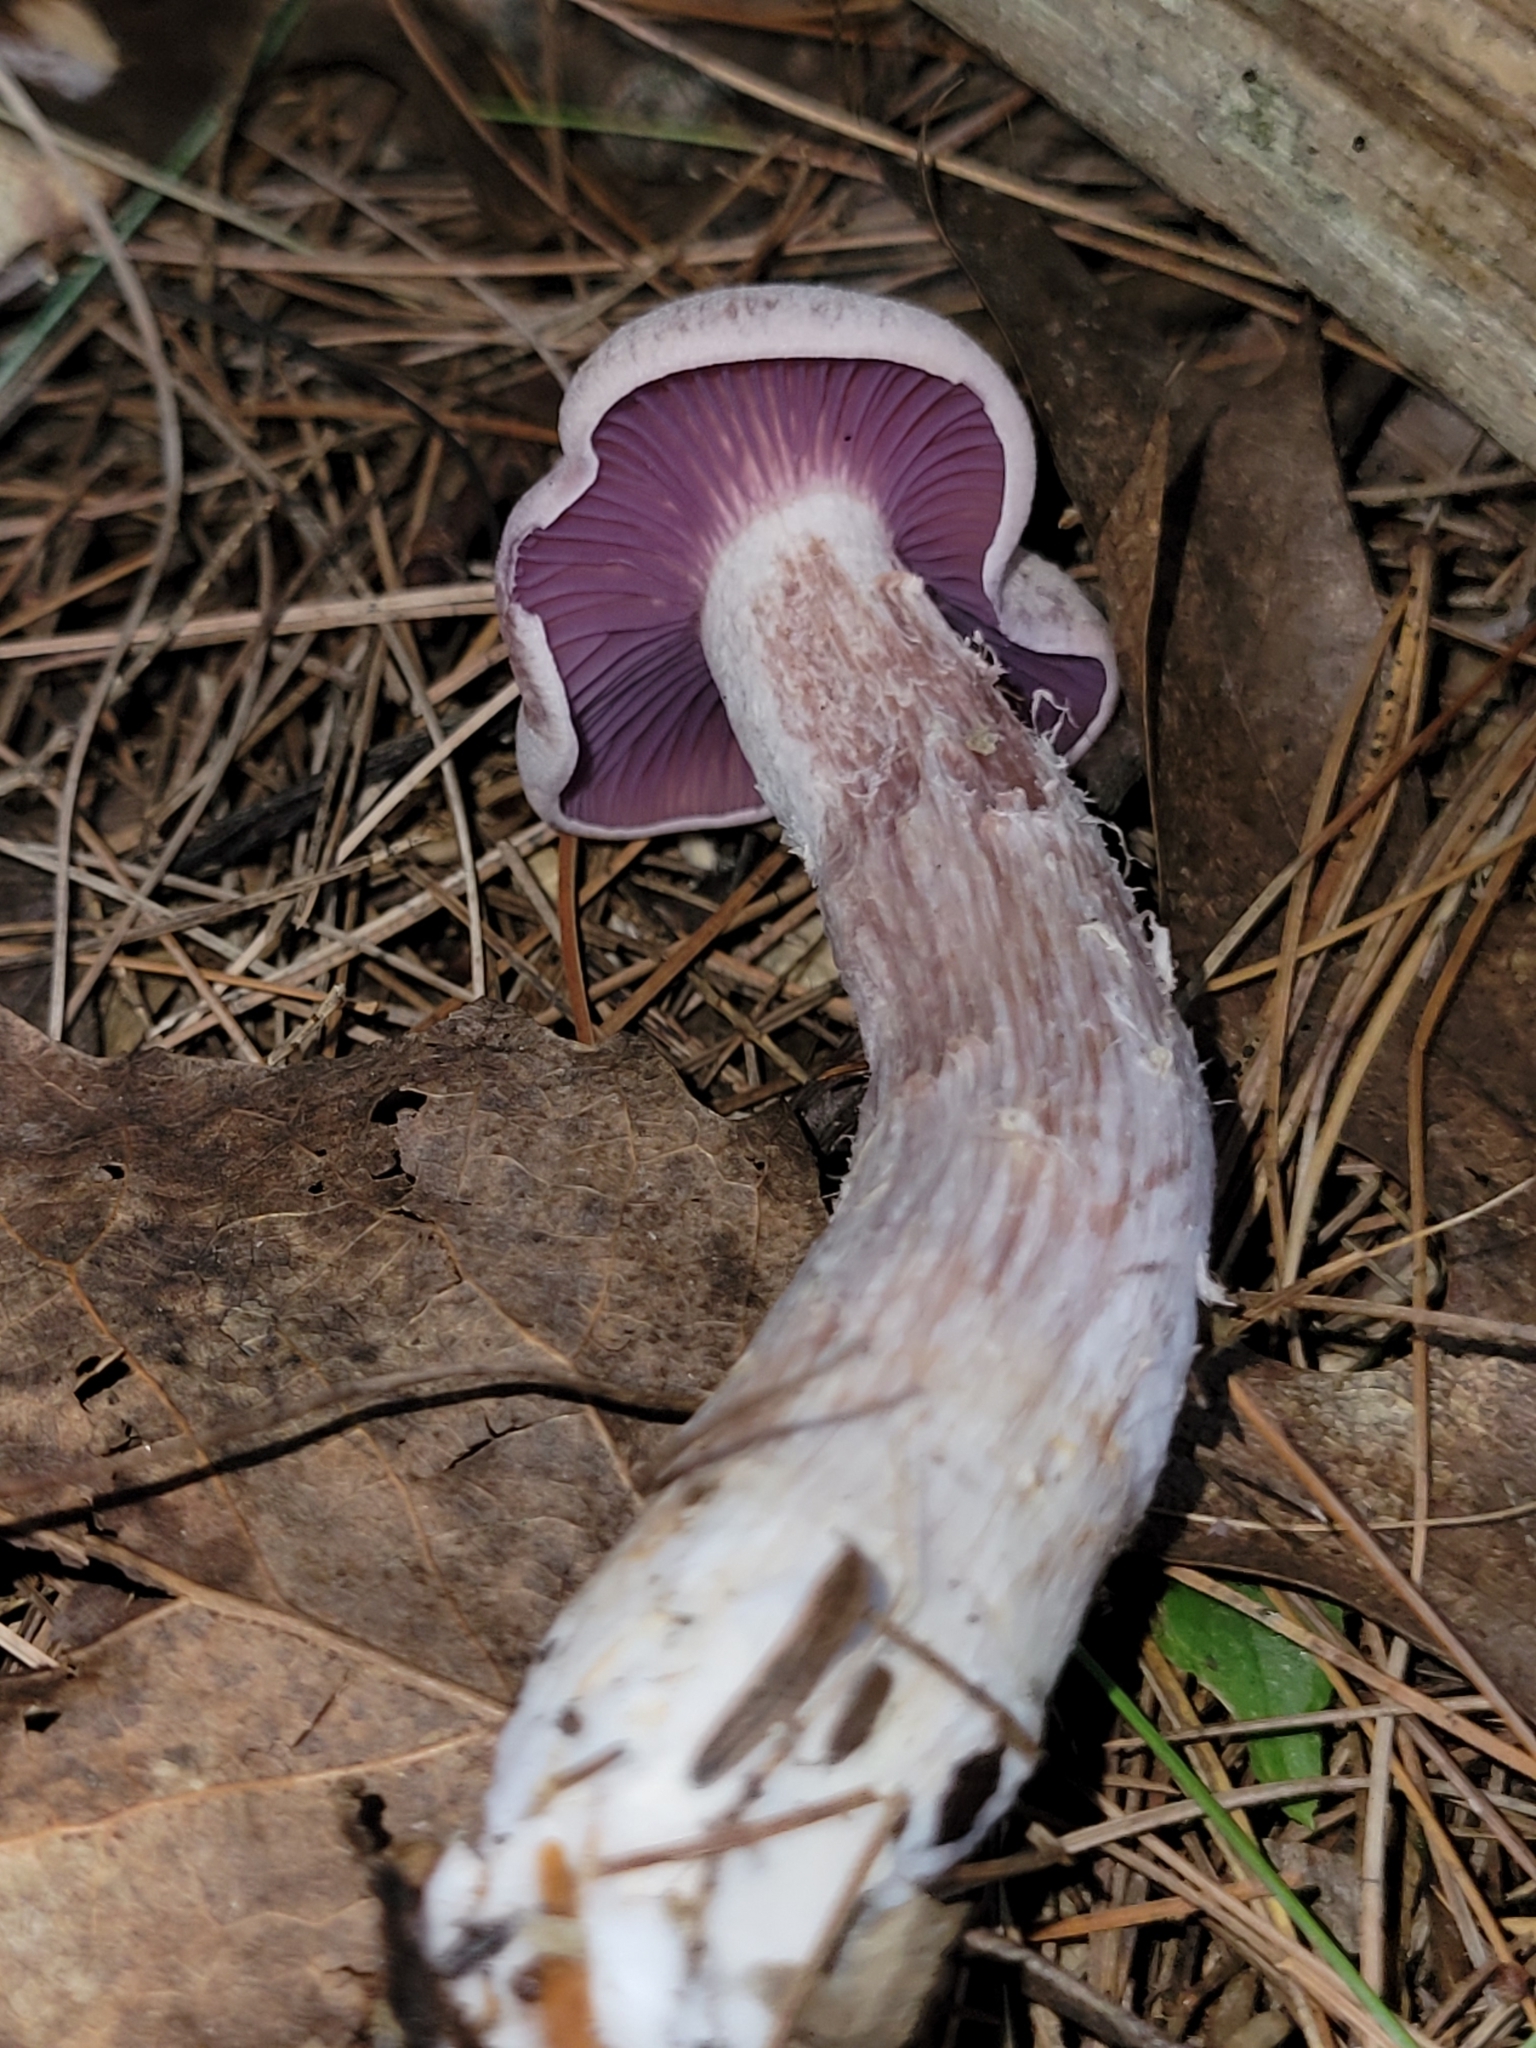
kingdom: Fungi
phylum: Basidiomycota
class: Agaricomycetes
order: Agaricales
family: Hydnangiaceae
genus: Laccaria
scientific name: Laccaria ochropurpurea
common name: Purple laccaria
